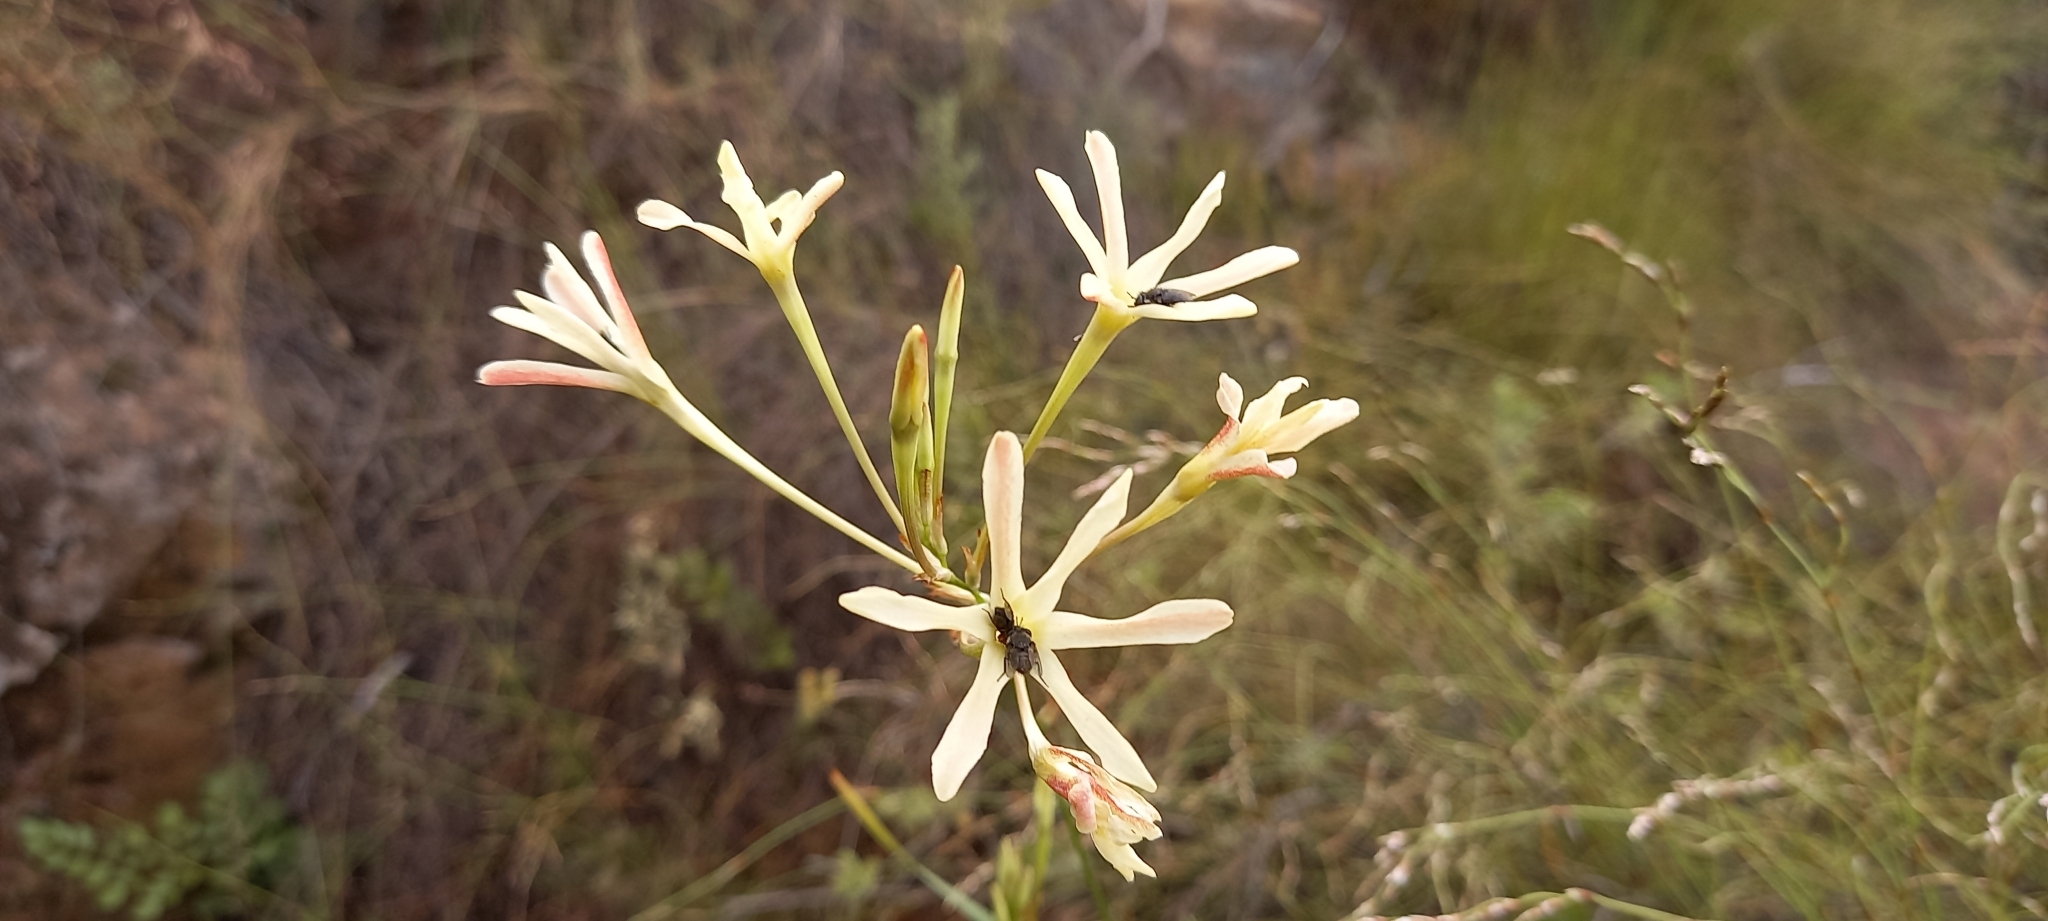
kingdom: Plantae
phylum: Tracheophyta
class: Liliopsida
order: Asparagales
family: Iridaceae
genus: Ixia
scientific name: Ixia paniculata
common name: Tubular corn-lily
